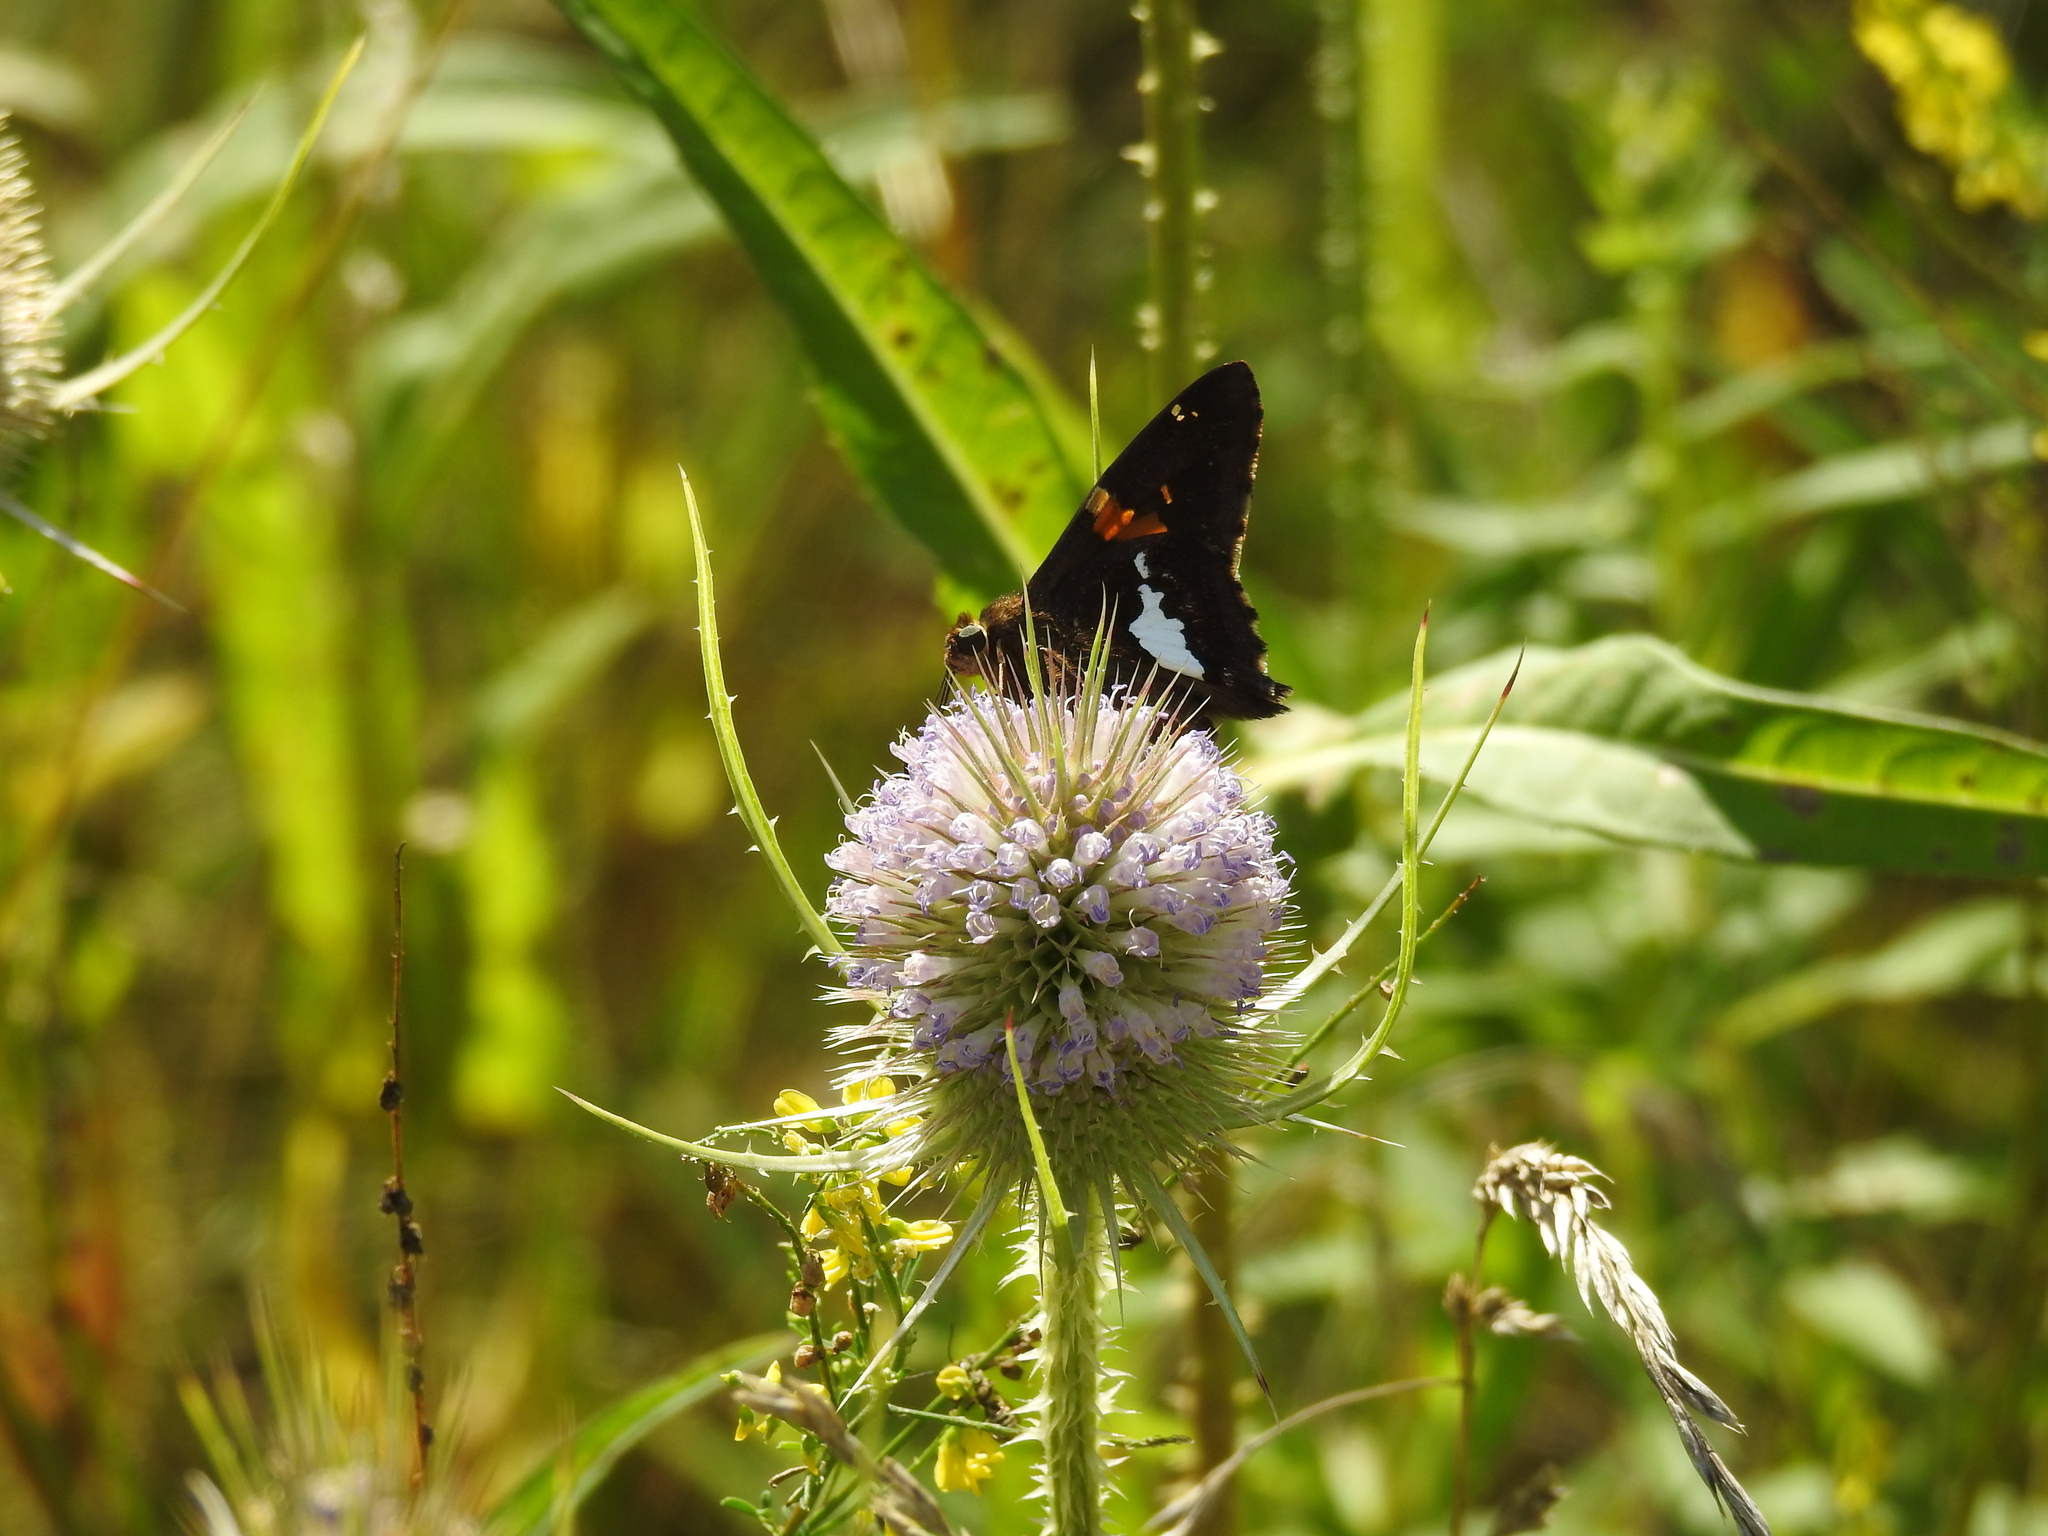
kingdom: Animalia
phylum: Arthropoda
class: Insecta
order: Lepidoptera
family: Hesperiidae
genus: Epargyreus
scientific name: Epargyreus clarus
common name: Silver-spotted skipper
